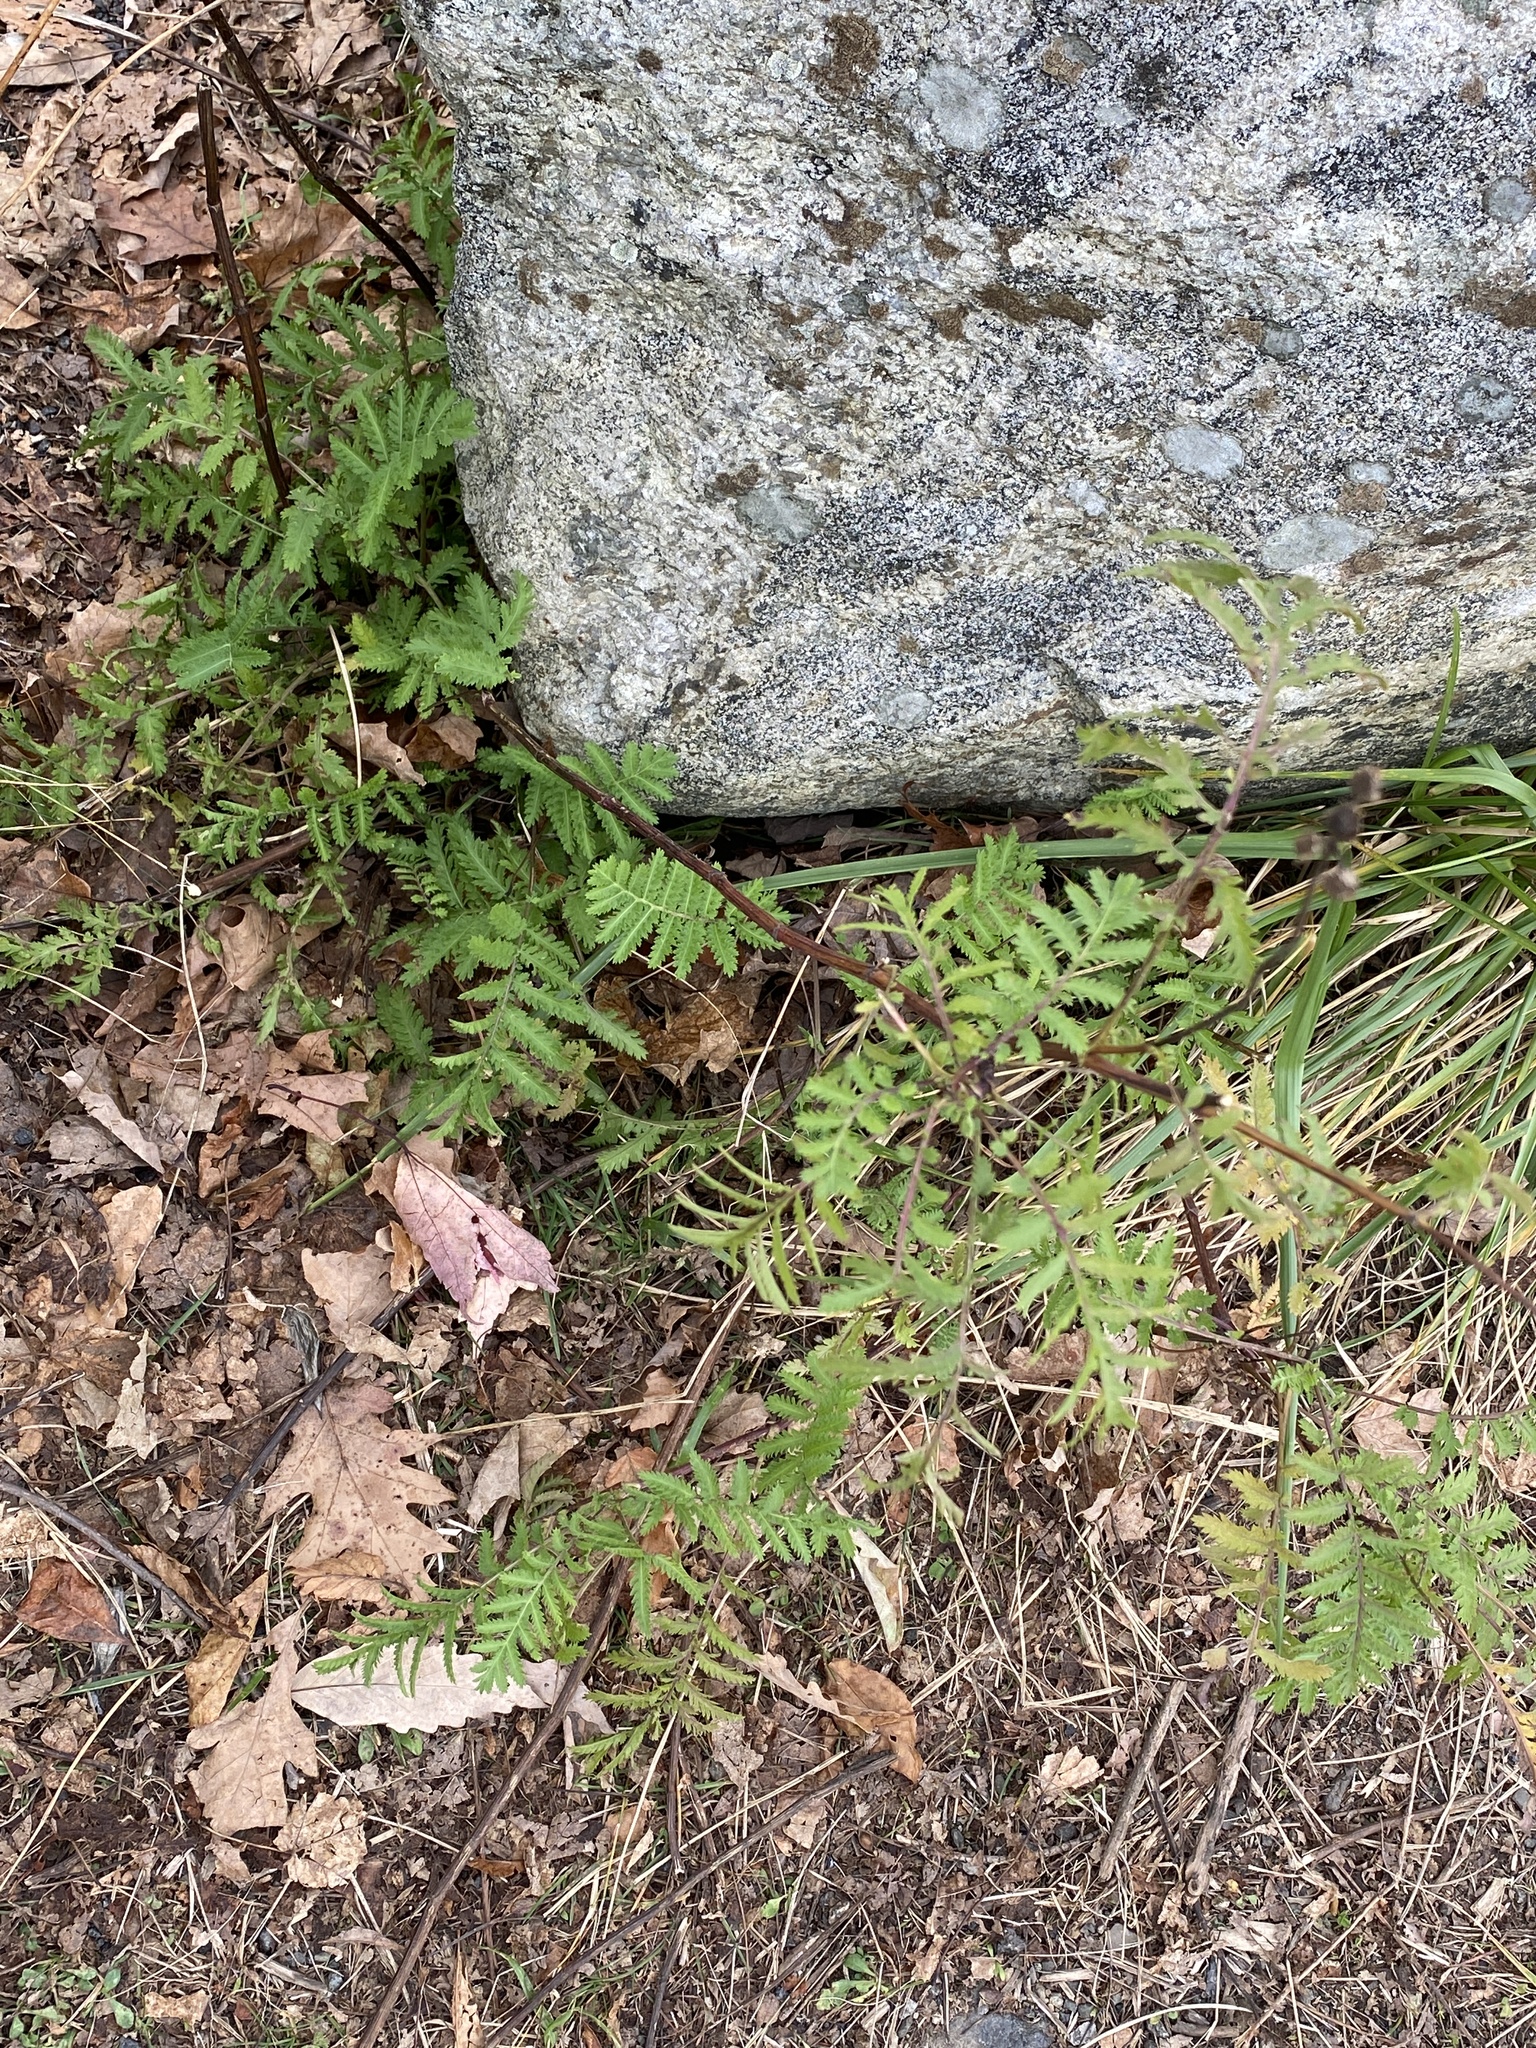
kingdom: Plantae
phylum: Tracheophyta
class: Magnoliopsida
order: Asterales
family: Asteraceae
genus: Tanacetum
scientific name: Tanacetum vulgare
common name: Common tansy
